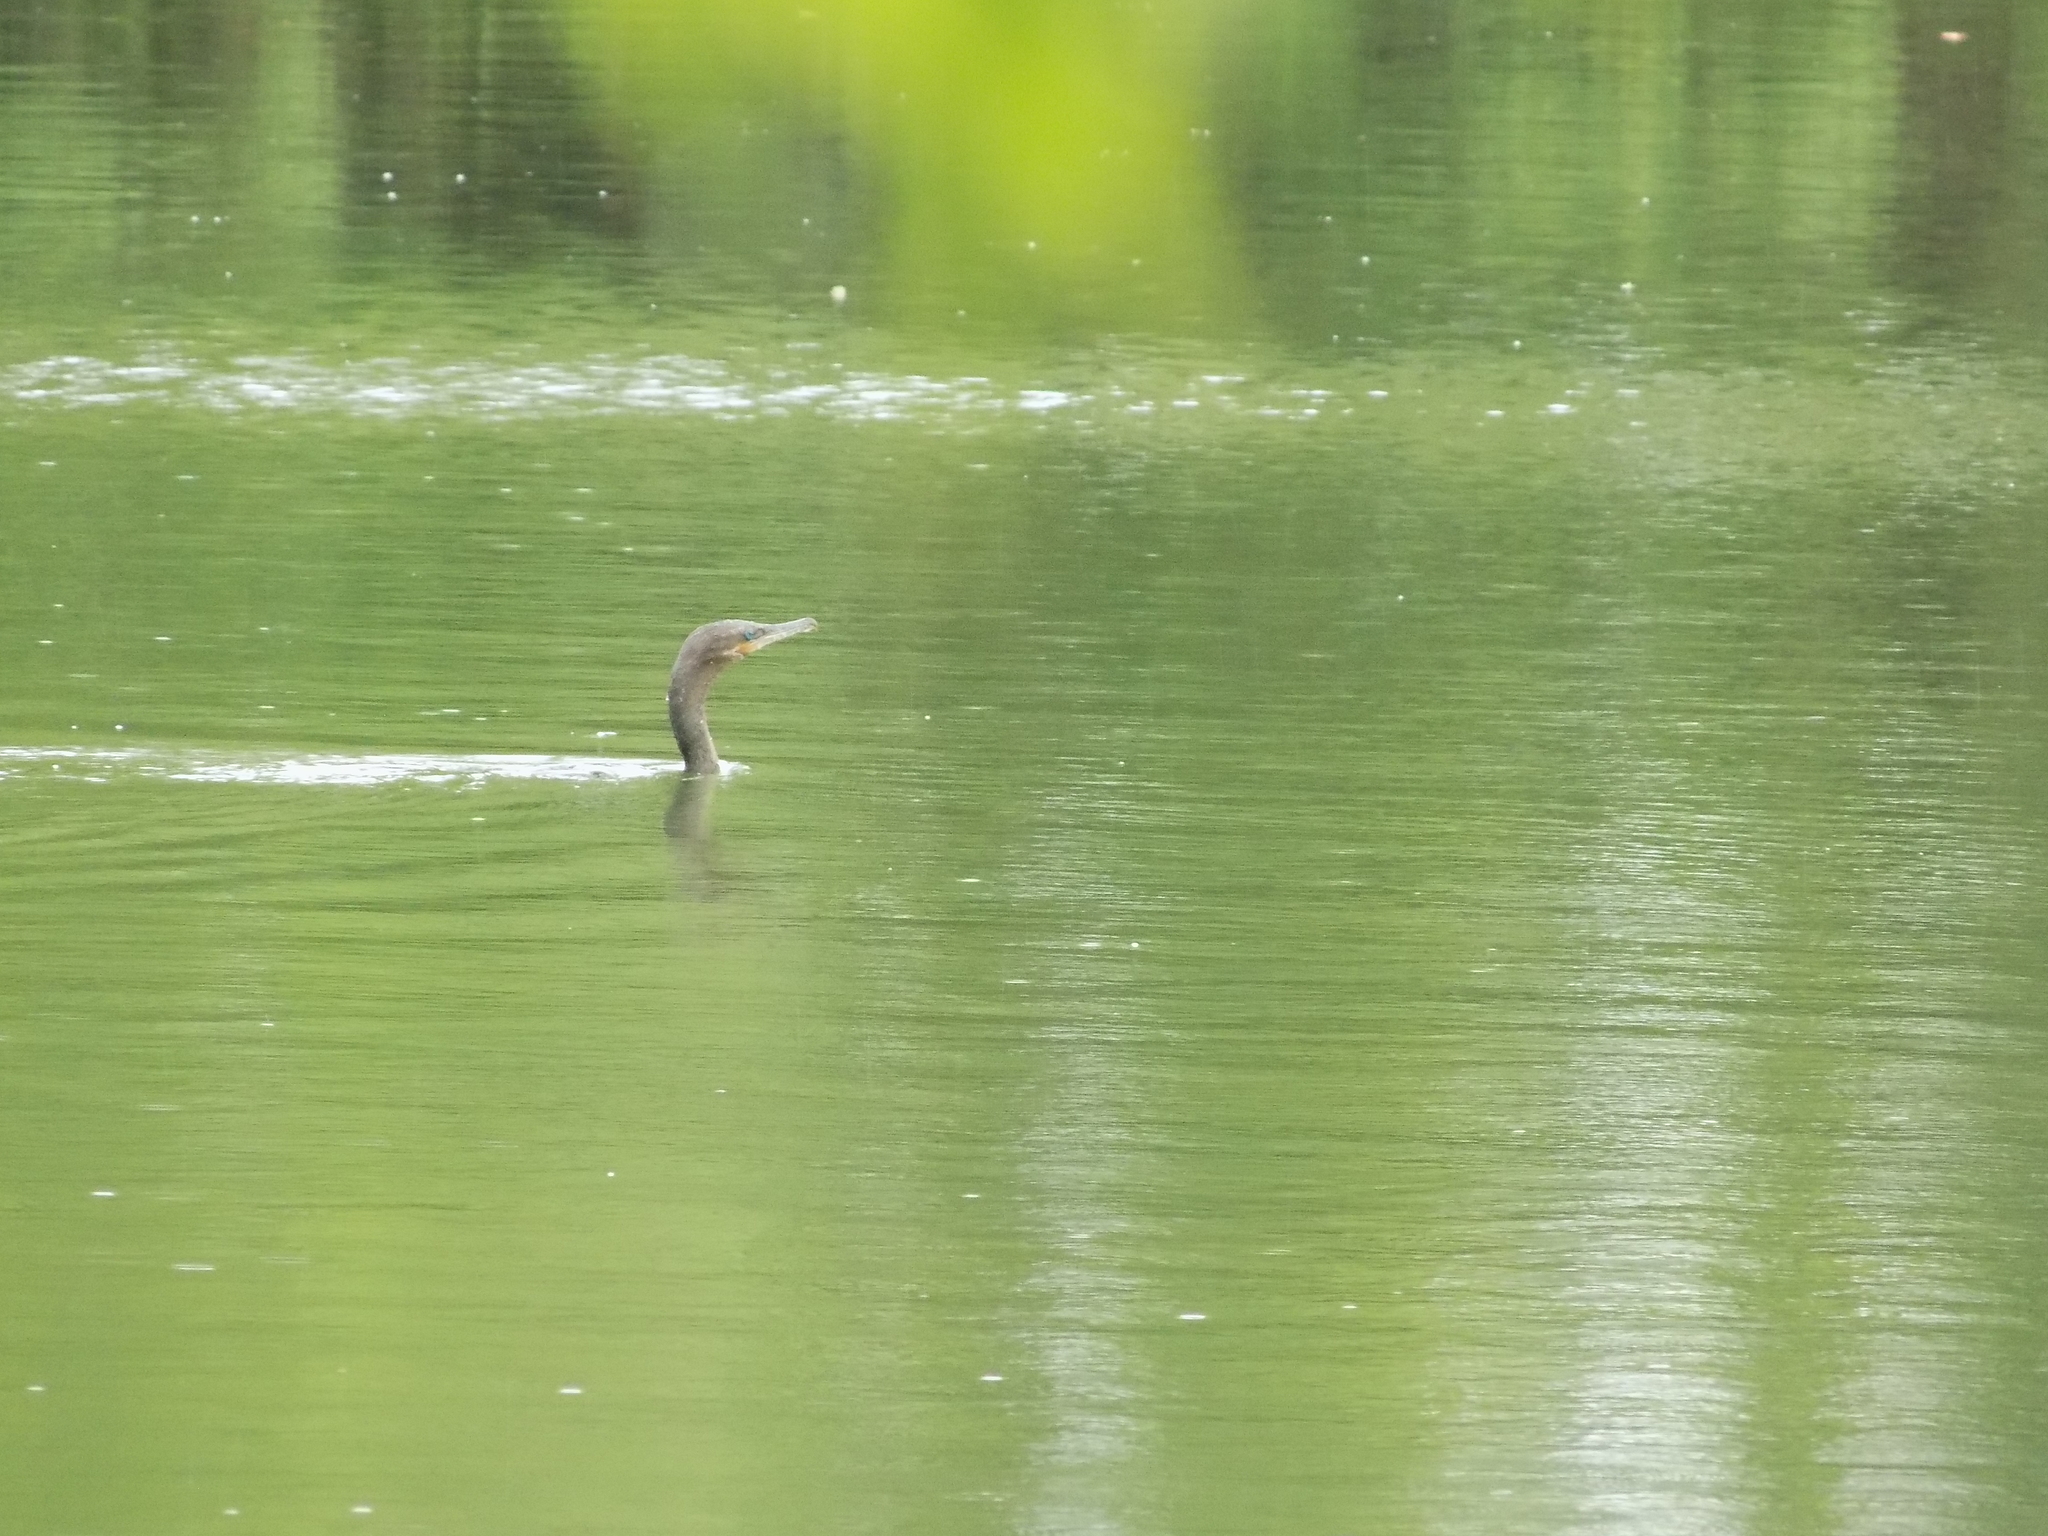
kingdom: Animalia
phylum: Chordata
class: Aves
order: Suliformes
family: Phalacrocoracidae
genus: Phalacrocorax
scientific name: Phalacrocorax brasilianus
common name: Neotropic cormorant
